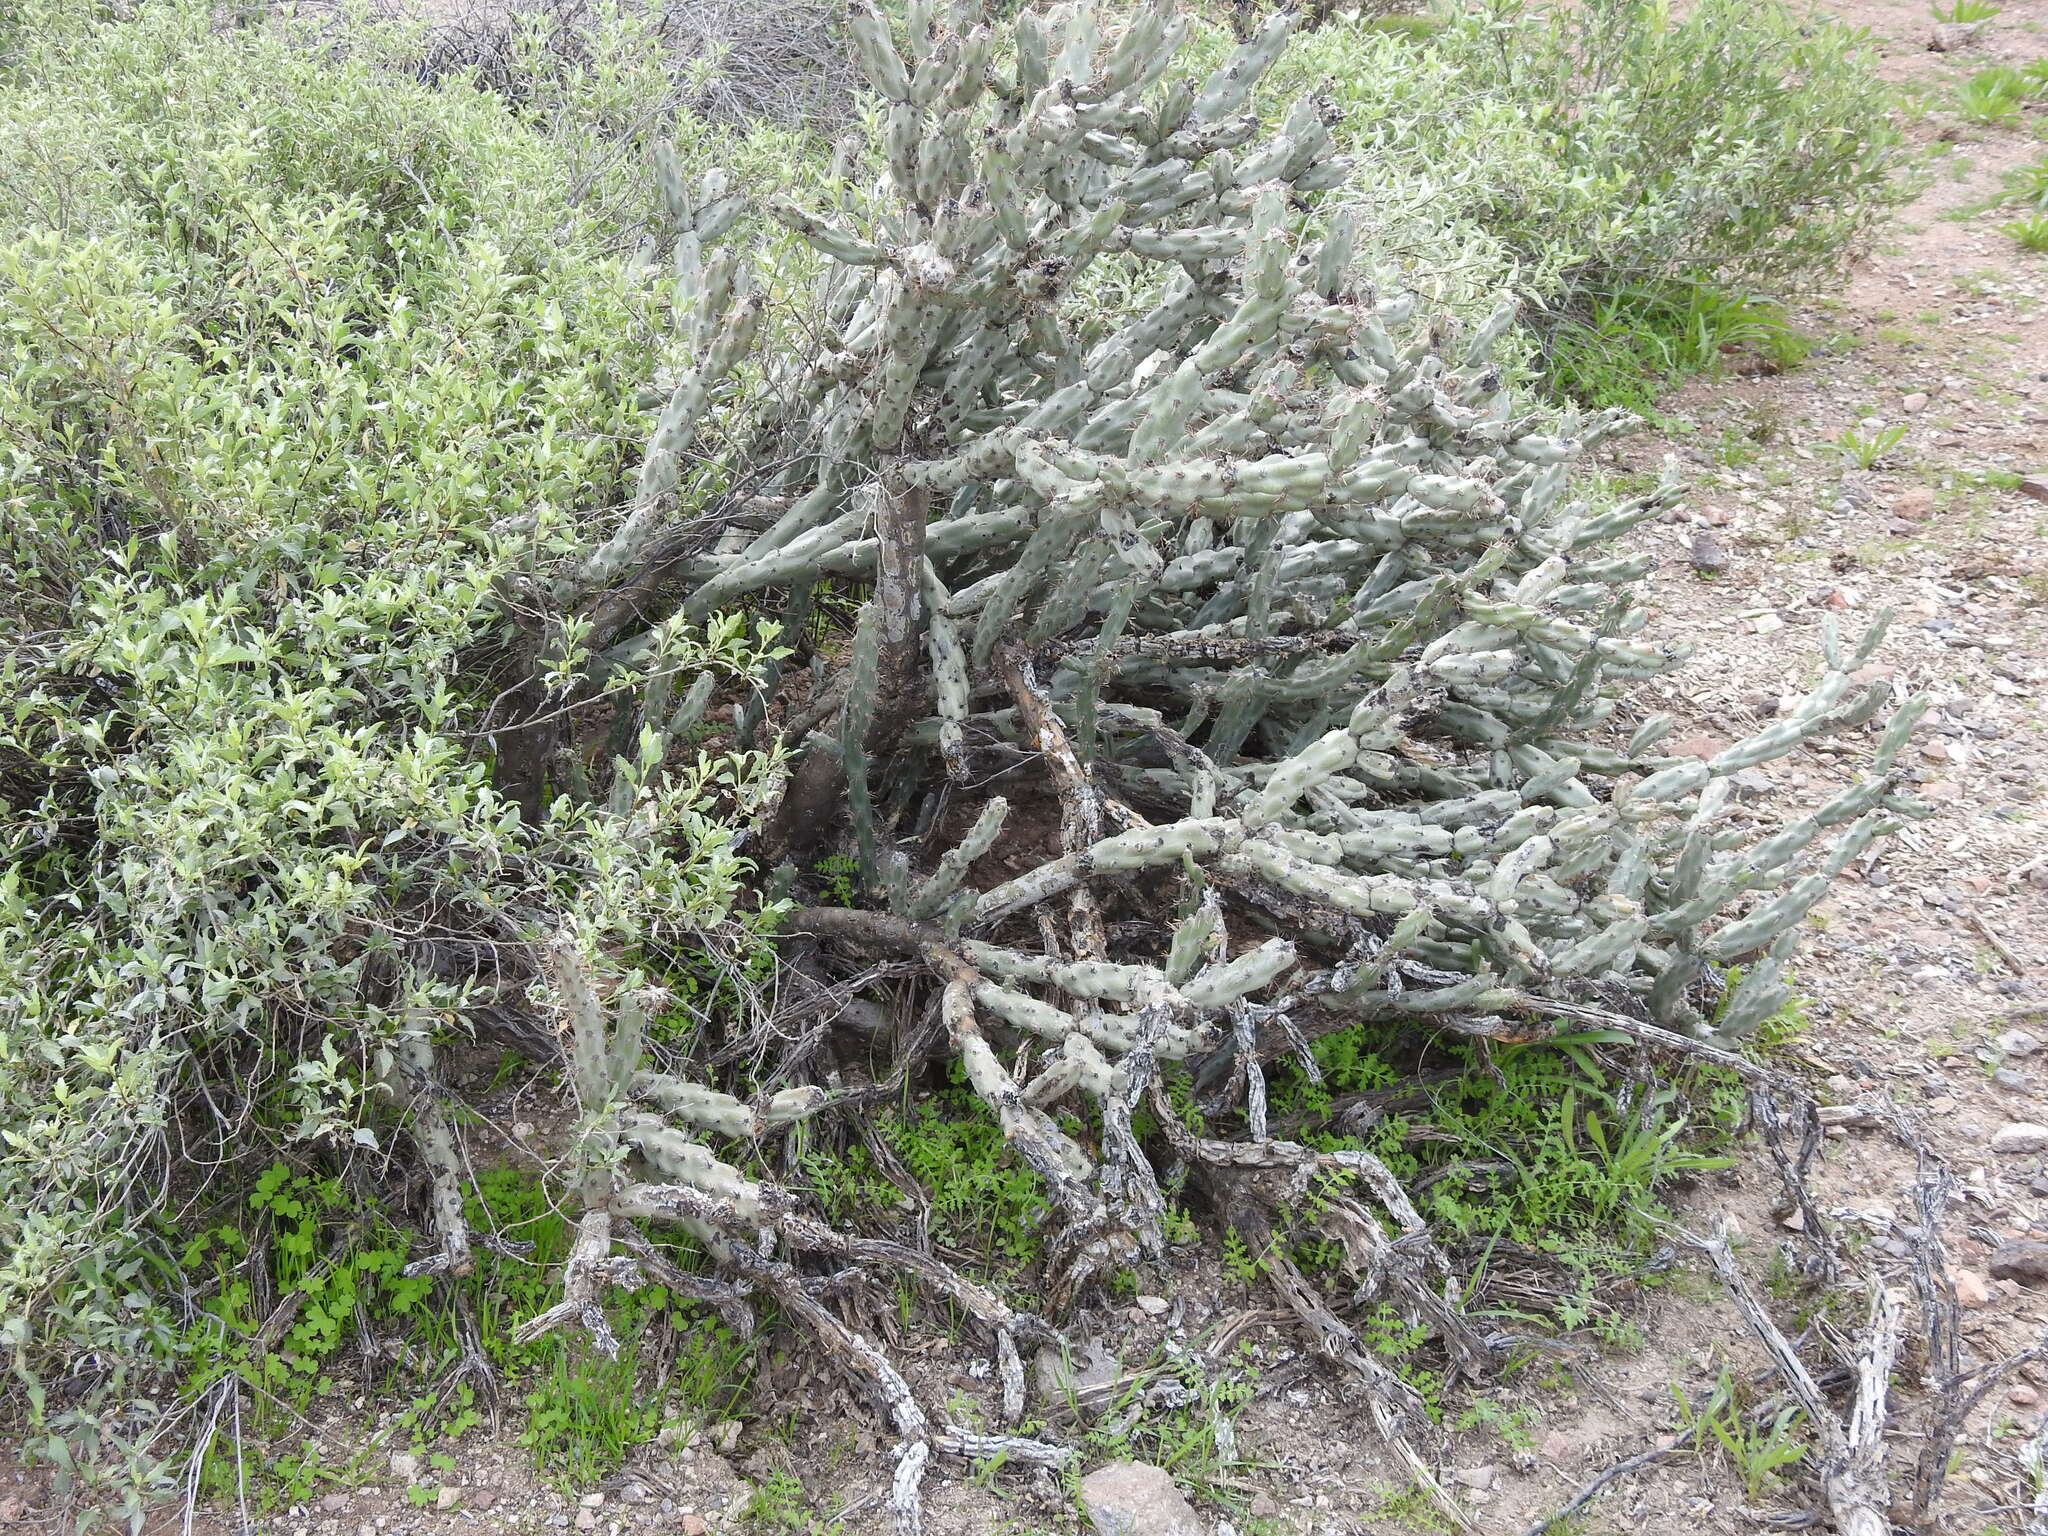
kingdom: Plantae
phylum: Tracheophyta
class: Magnoliopsida
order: Caryophyllales
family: Cactaceae
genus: Cylindropuntia
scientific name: Cylindropuntia acanthocarpa
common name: Buckhorn cholla
